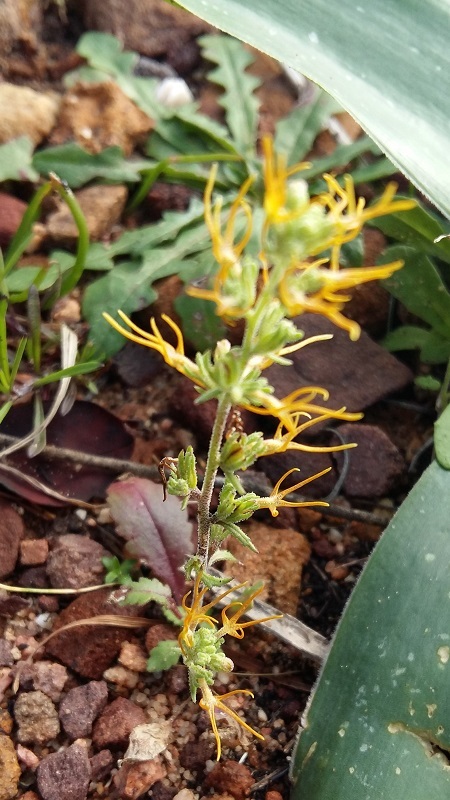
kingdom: Plantae
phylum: Tracheophyta
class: Magnoliopsida
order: Lamiales
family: Scrophulariaceae
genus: Manulea
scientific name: Manulea cheiranthus
